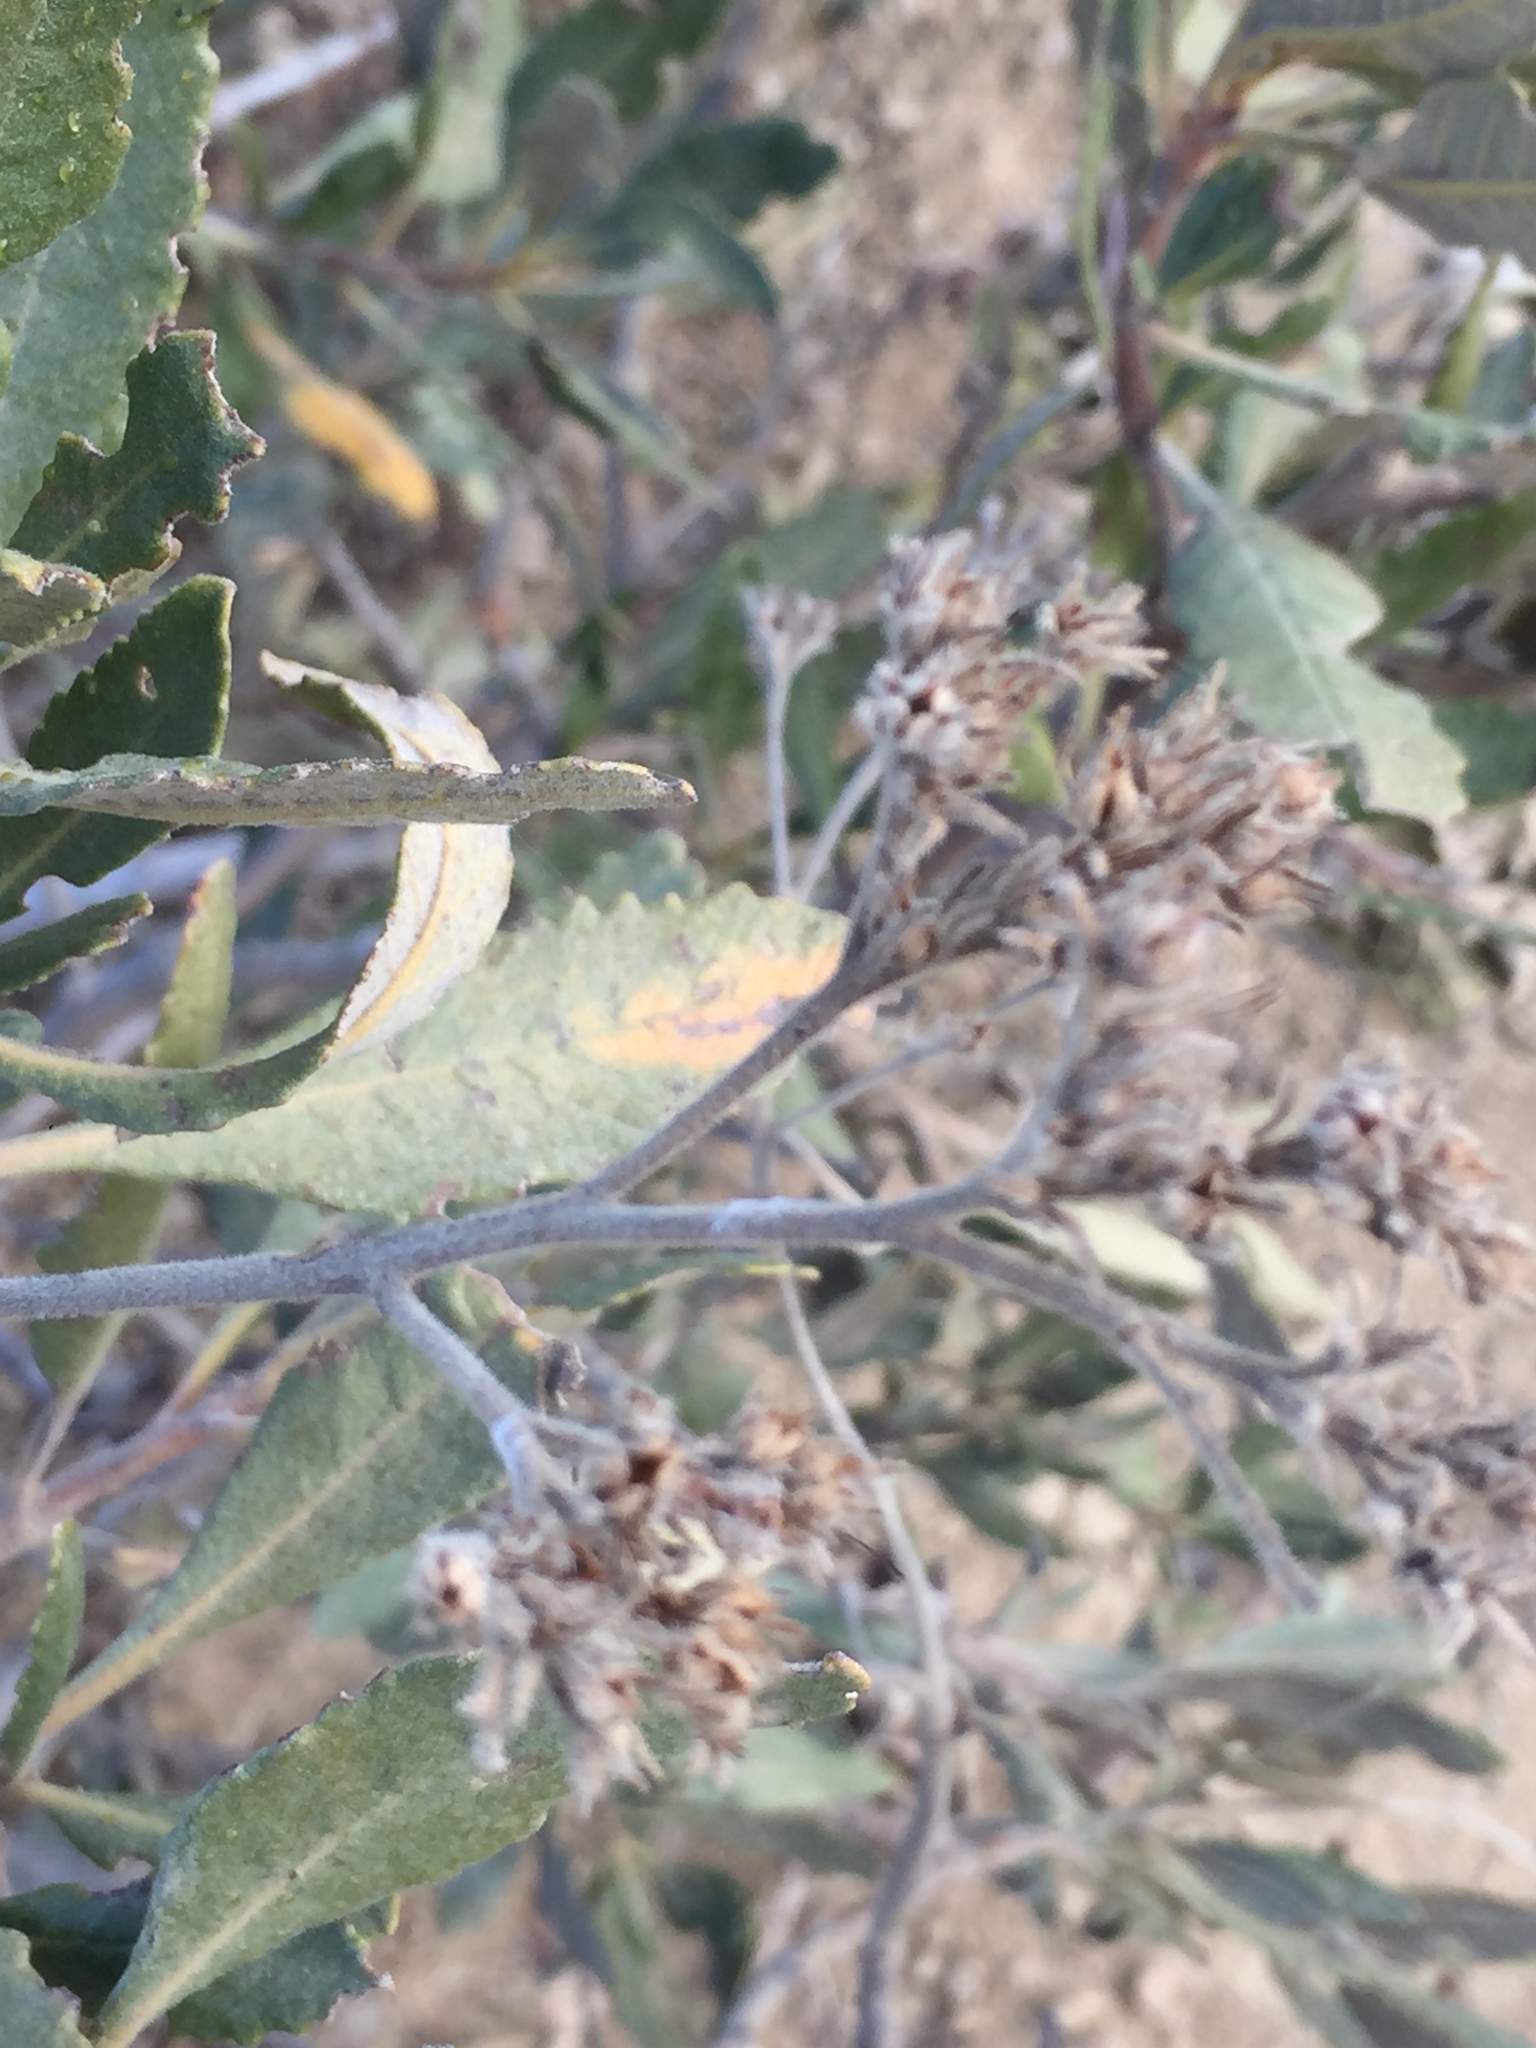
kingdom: Plantae
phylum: Tracheophyta
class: Magnoliopsida
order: Boraginales
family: Namaceae
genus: Eriodictyon
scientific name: Eriodictyon crassifolium
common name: Thick-leaf yerba-santa
